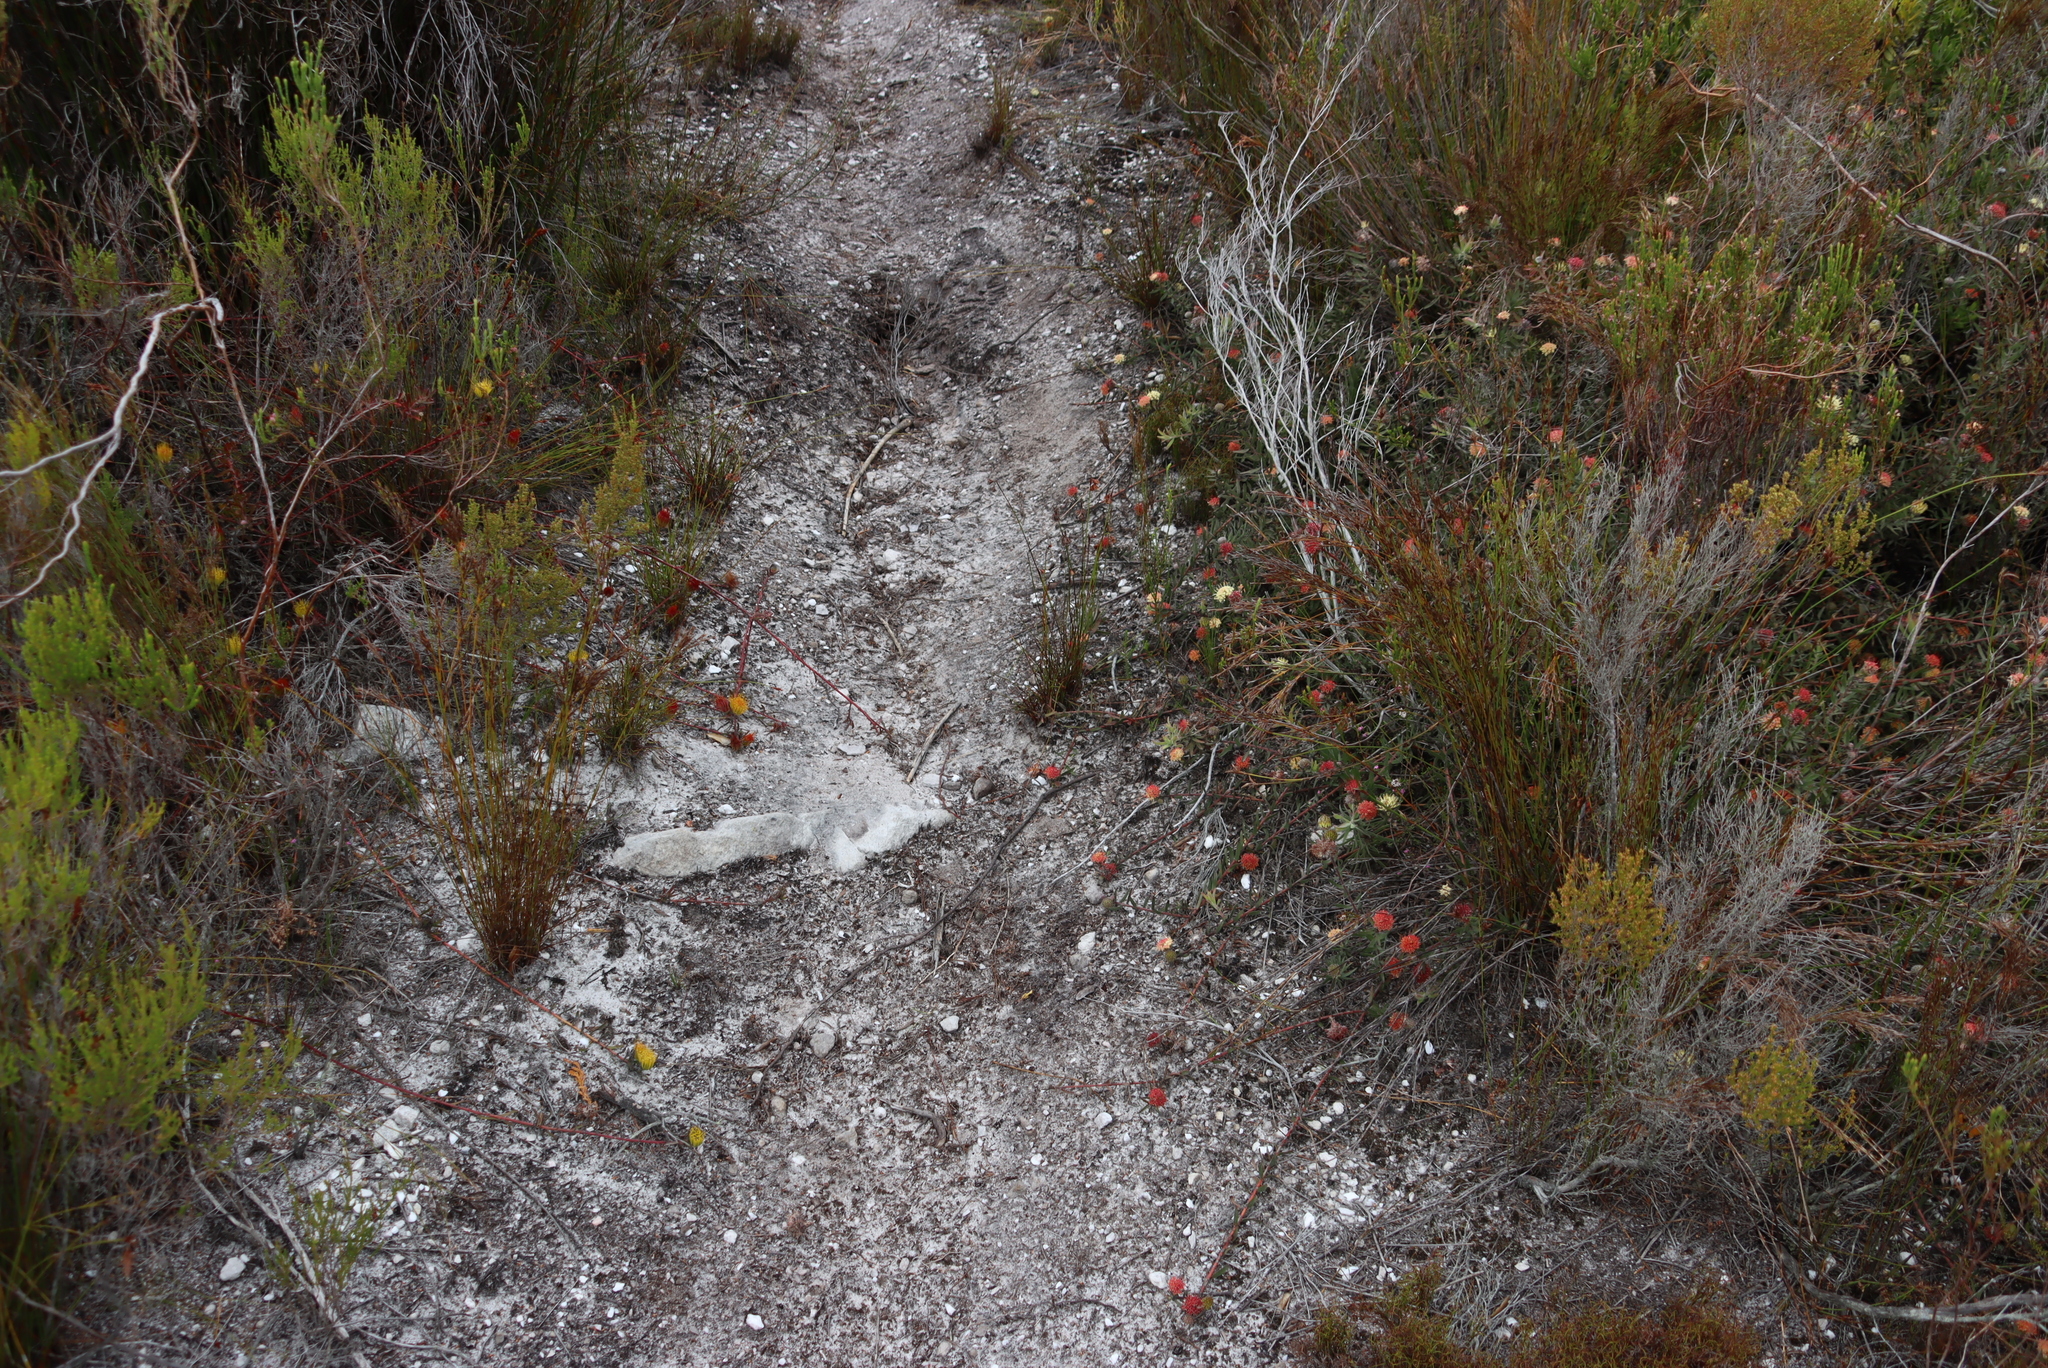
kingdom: Plantae
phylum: Tracheophyta
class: Magnoliopsida
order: Proteales
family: Proteaceae
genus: Leucospermum
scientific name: Leucospermum pedunculatum
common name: White-trailing pincushion
